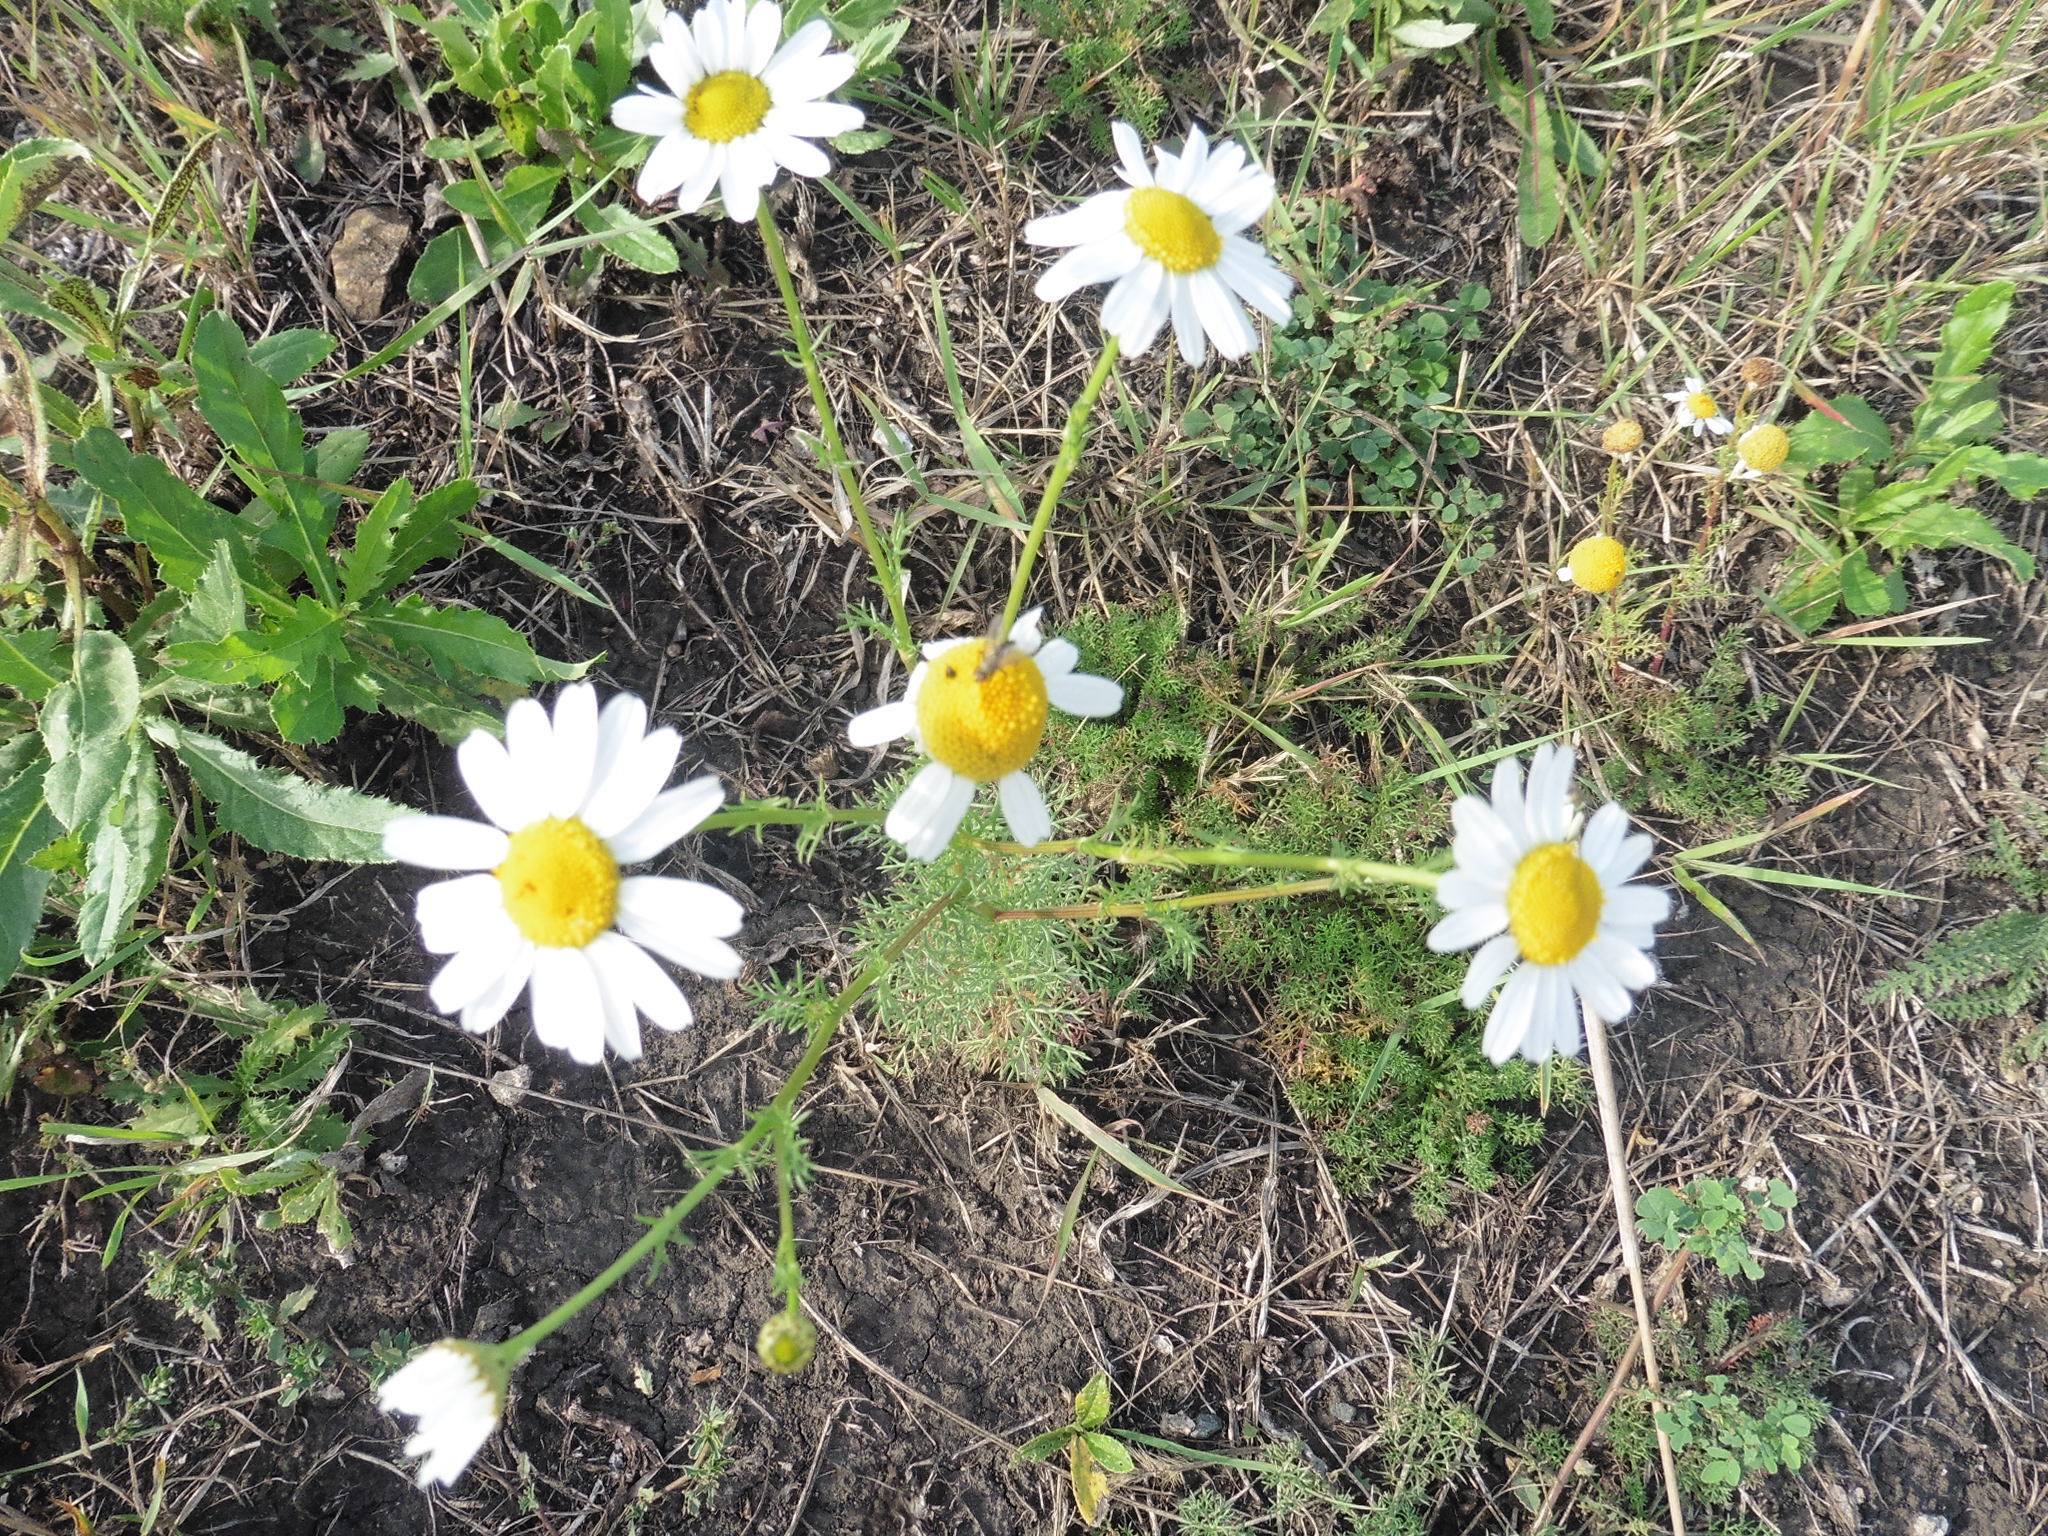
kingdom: Plantae
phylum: Tracheophyta
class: Magnoliopsida
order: Asterales
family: Asteraceae
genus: Tripleurospermum
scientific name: Tripleurospermum inodorum
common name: Scentless mayweed
